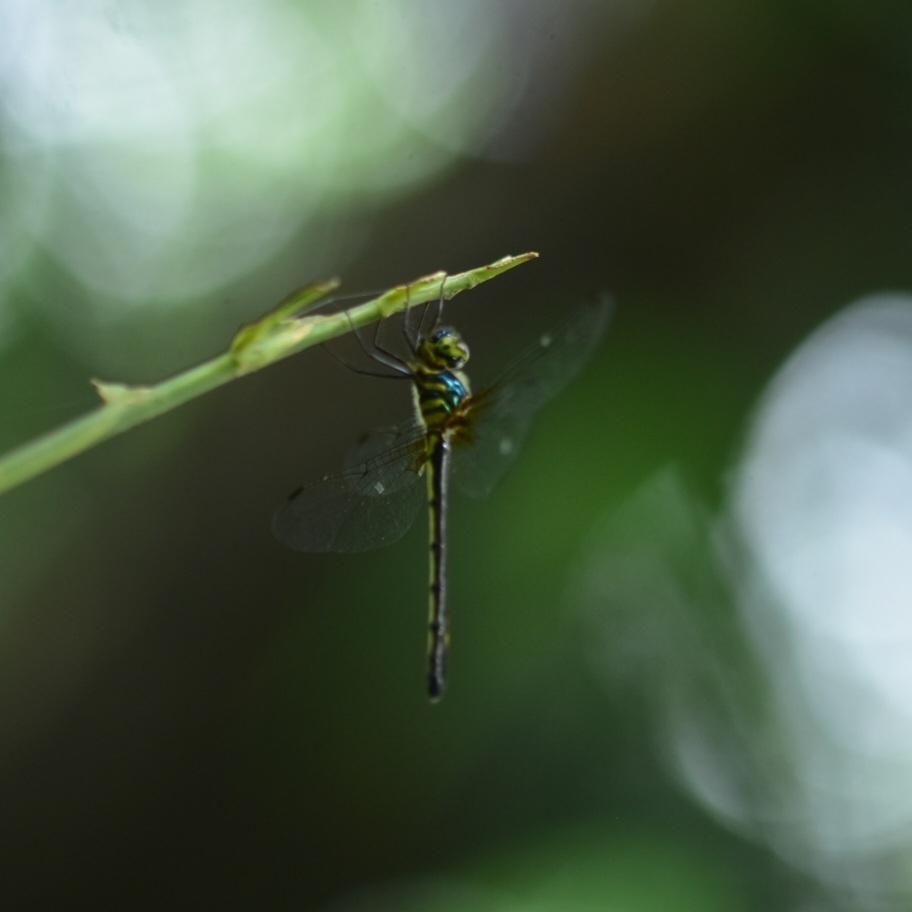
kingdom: Animalia
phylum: Arthropoda
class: Insecta
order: Odonata
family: Corduliidae
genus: Macromidia
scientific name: Macromidia donaldi
